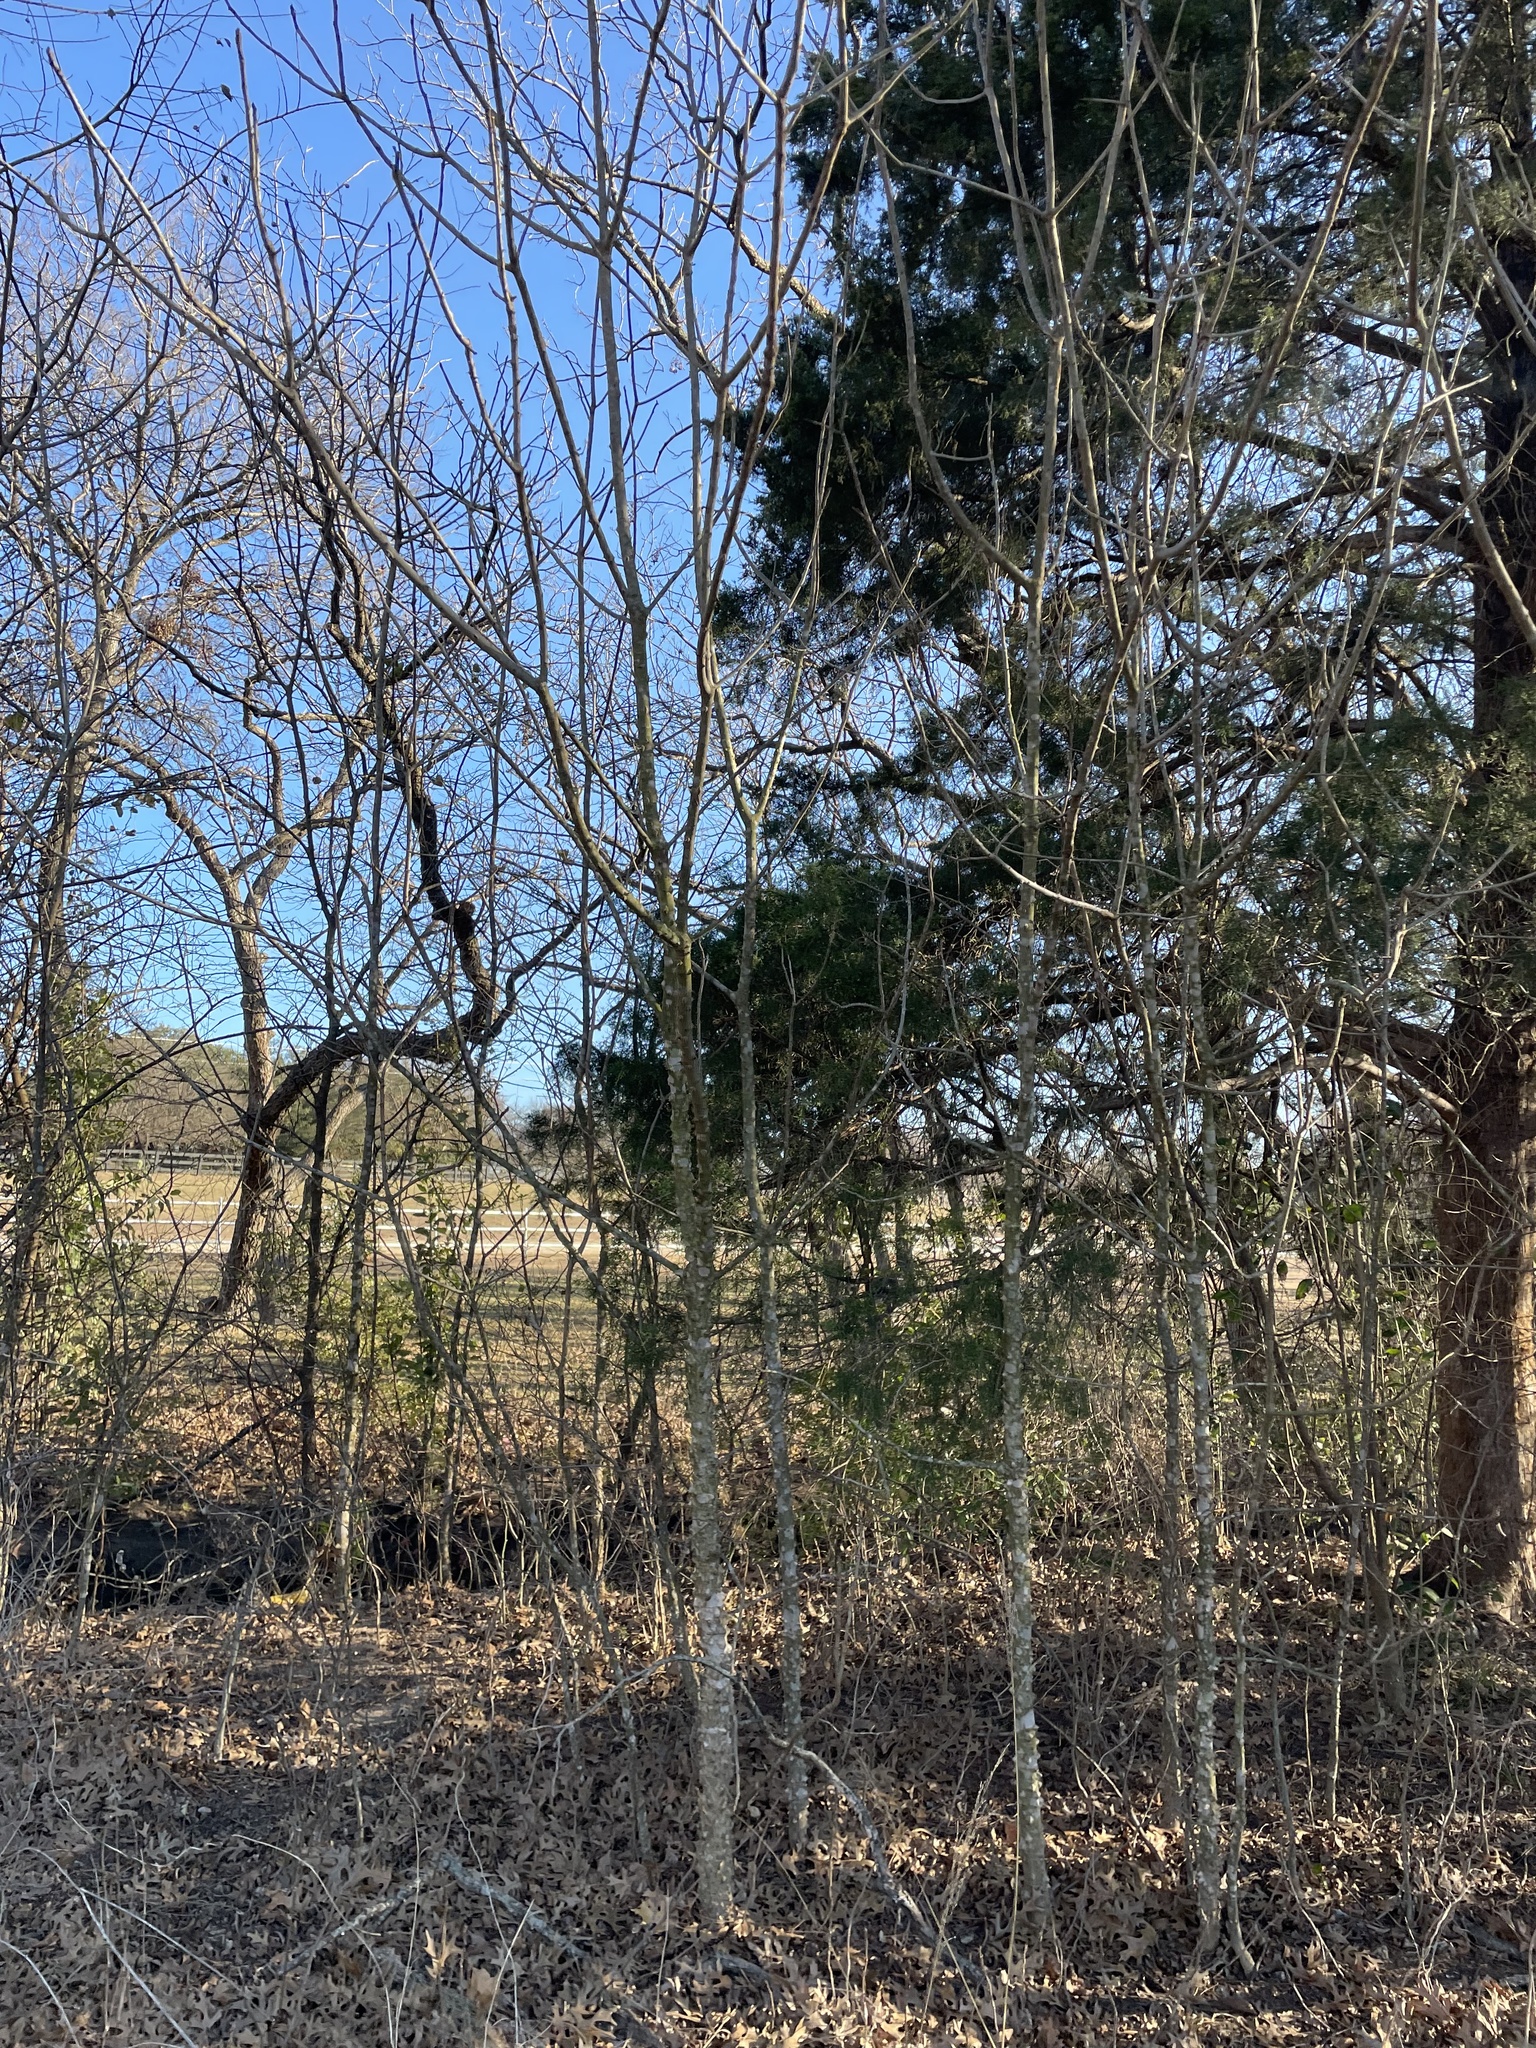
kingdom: Plantae
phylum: Tracheophyta
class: Magnoliopsida
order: Sapindales
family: Rutaceae
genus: Zanthoxylum
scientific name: Zanthoxylum clava-herculis
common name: Hercules'-club
